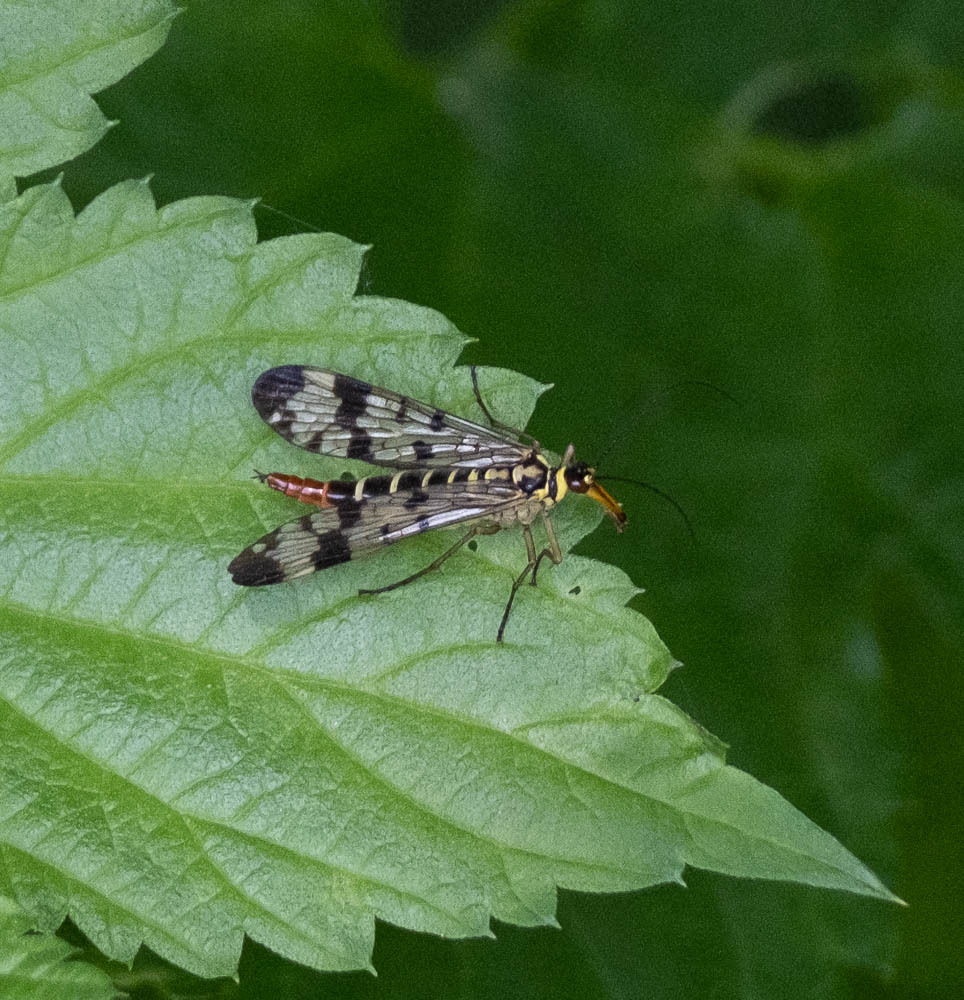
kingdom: Animalia
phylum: Arthropoda
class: Insecta
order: Mecoptera
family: Panorpidae
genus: Panorpa
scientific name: Panorpa communis
